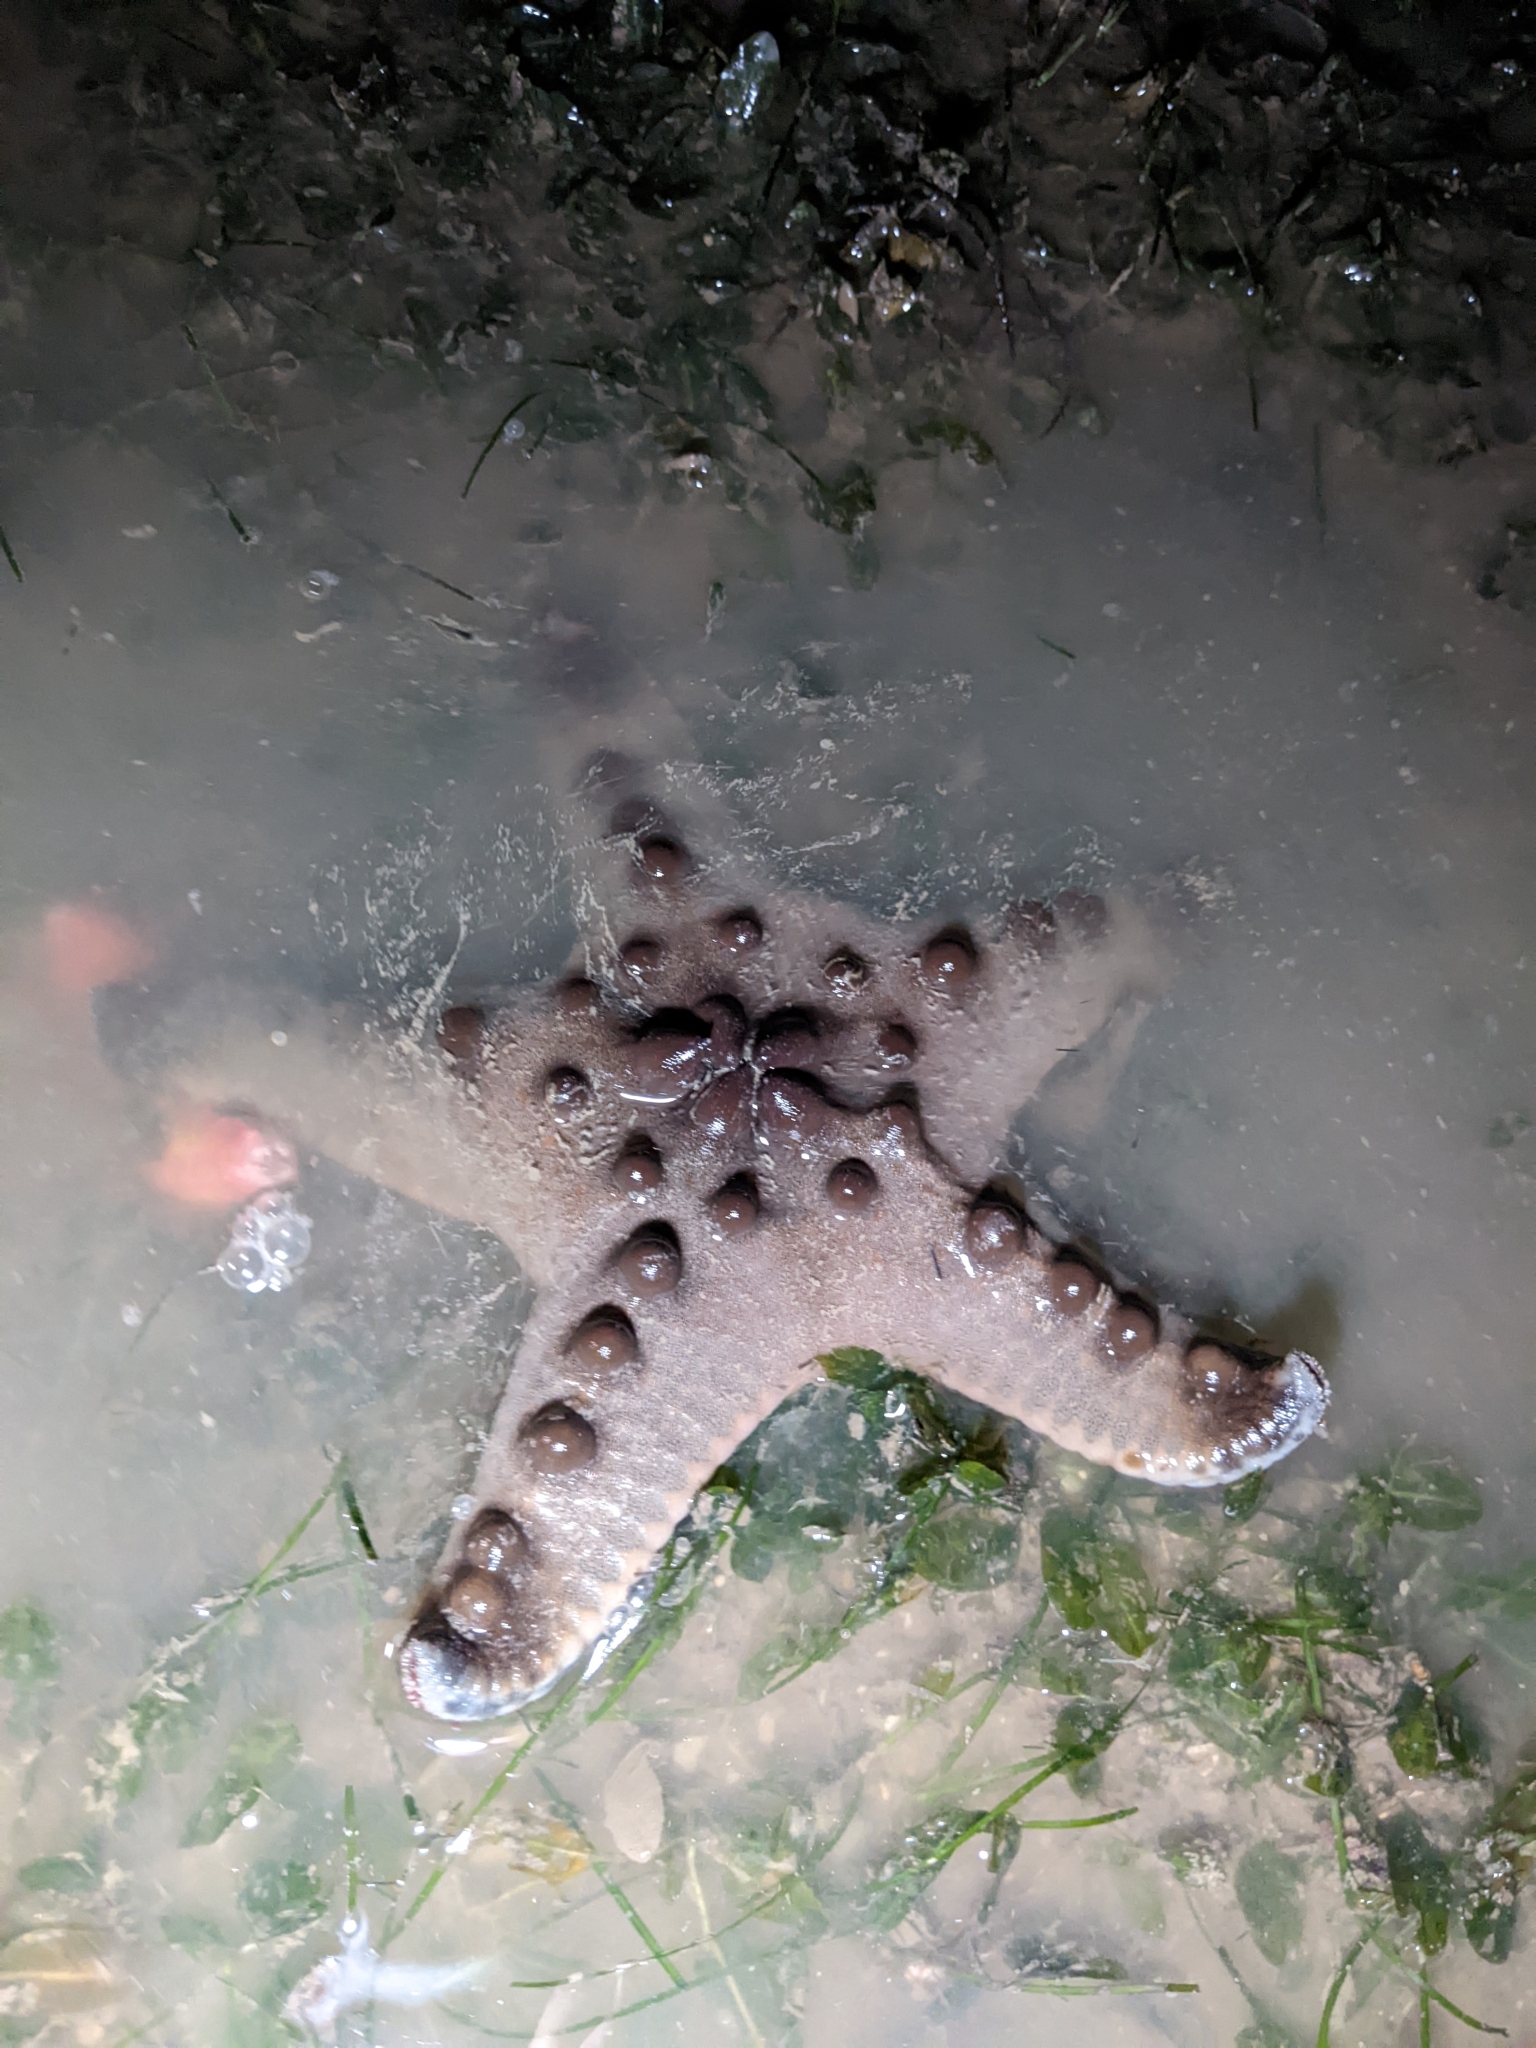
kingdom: Animalia
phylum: Echinodermata
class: Asteroidea
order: Valvatida
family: Oreasteridae
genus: Protoreaster
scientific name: Protoreaster nodosus
